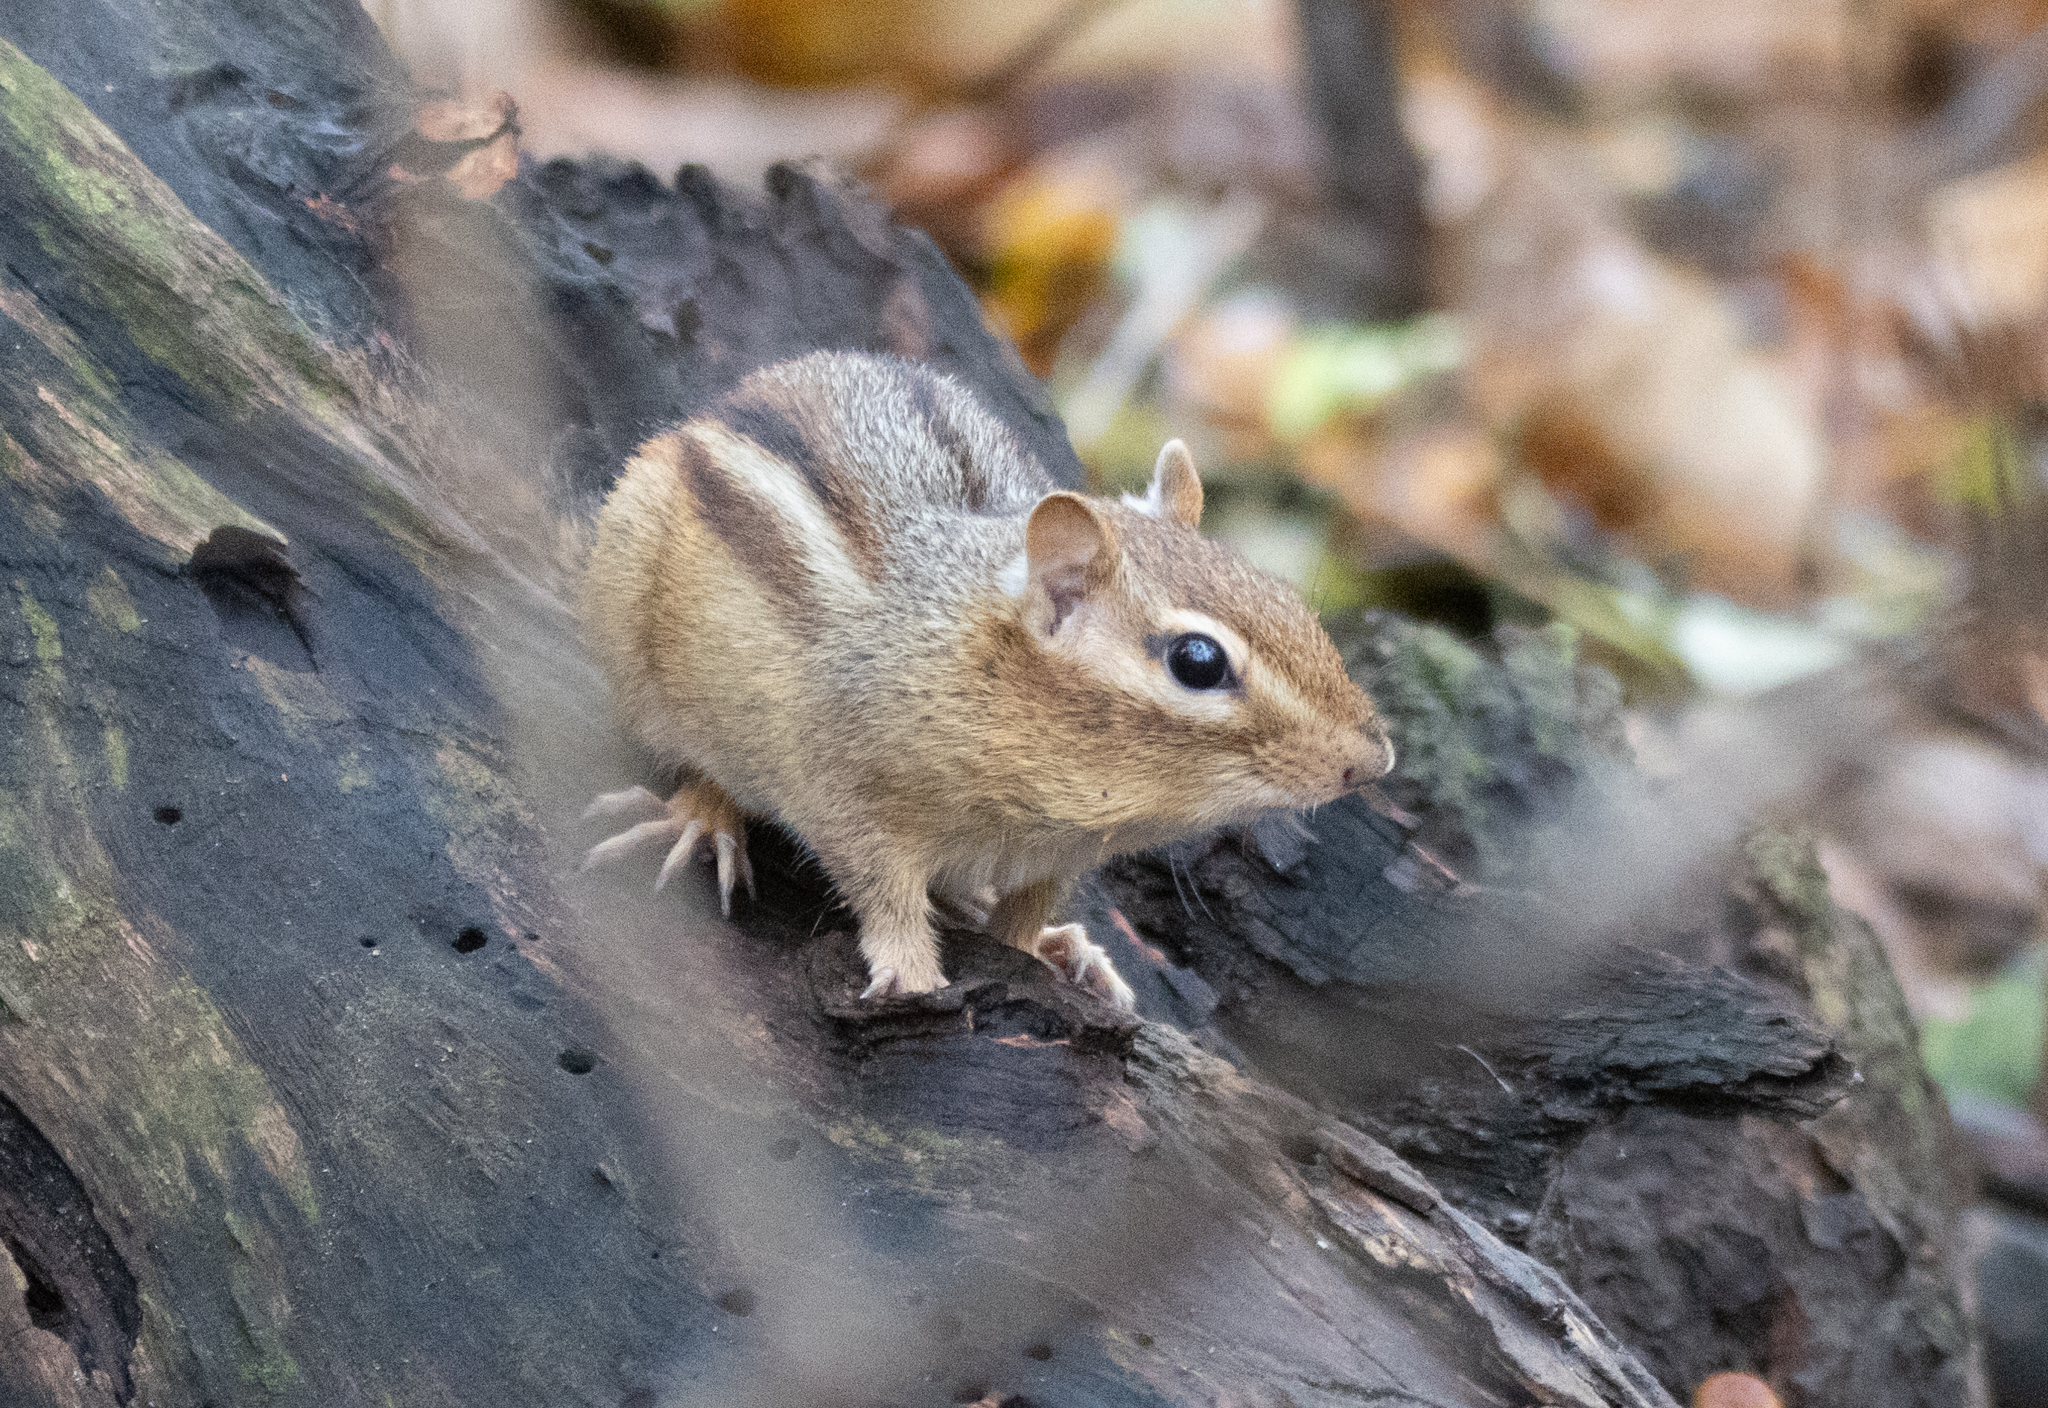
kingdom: Animalia
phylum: Chordata
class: Mammalia
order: Rodentia
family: Sciuridae
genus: Tamias
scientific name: Tamias striatus
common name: Eastern chipmunk
